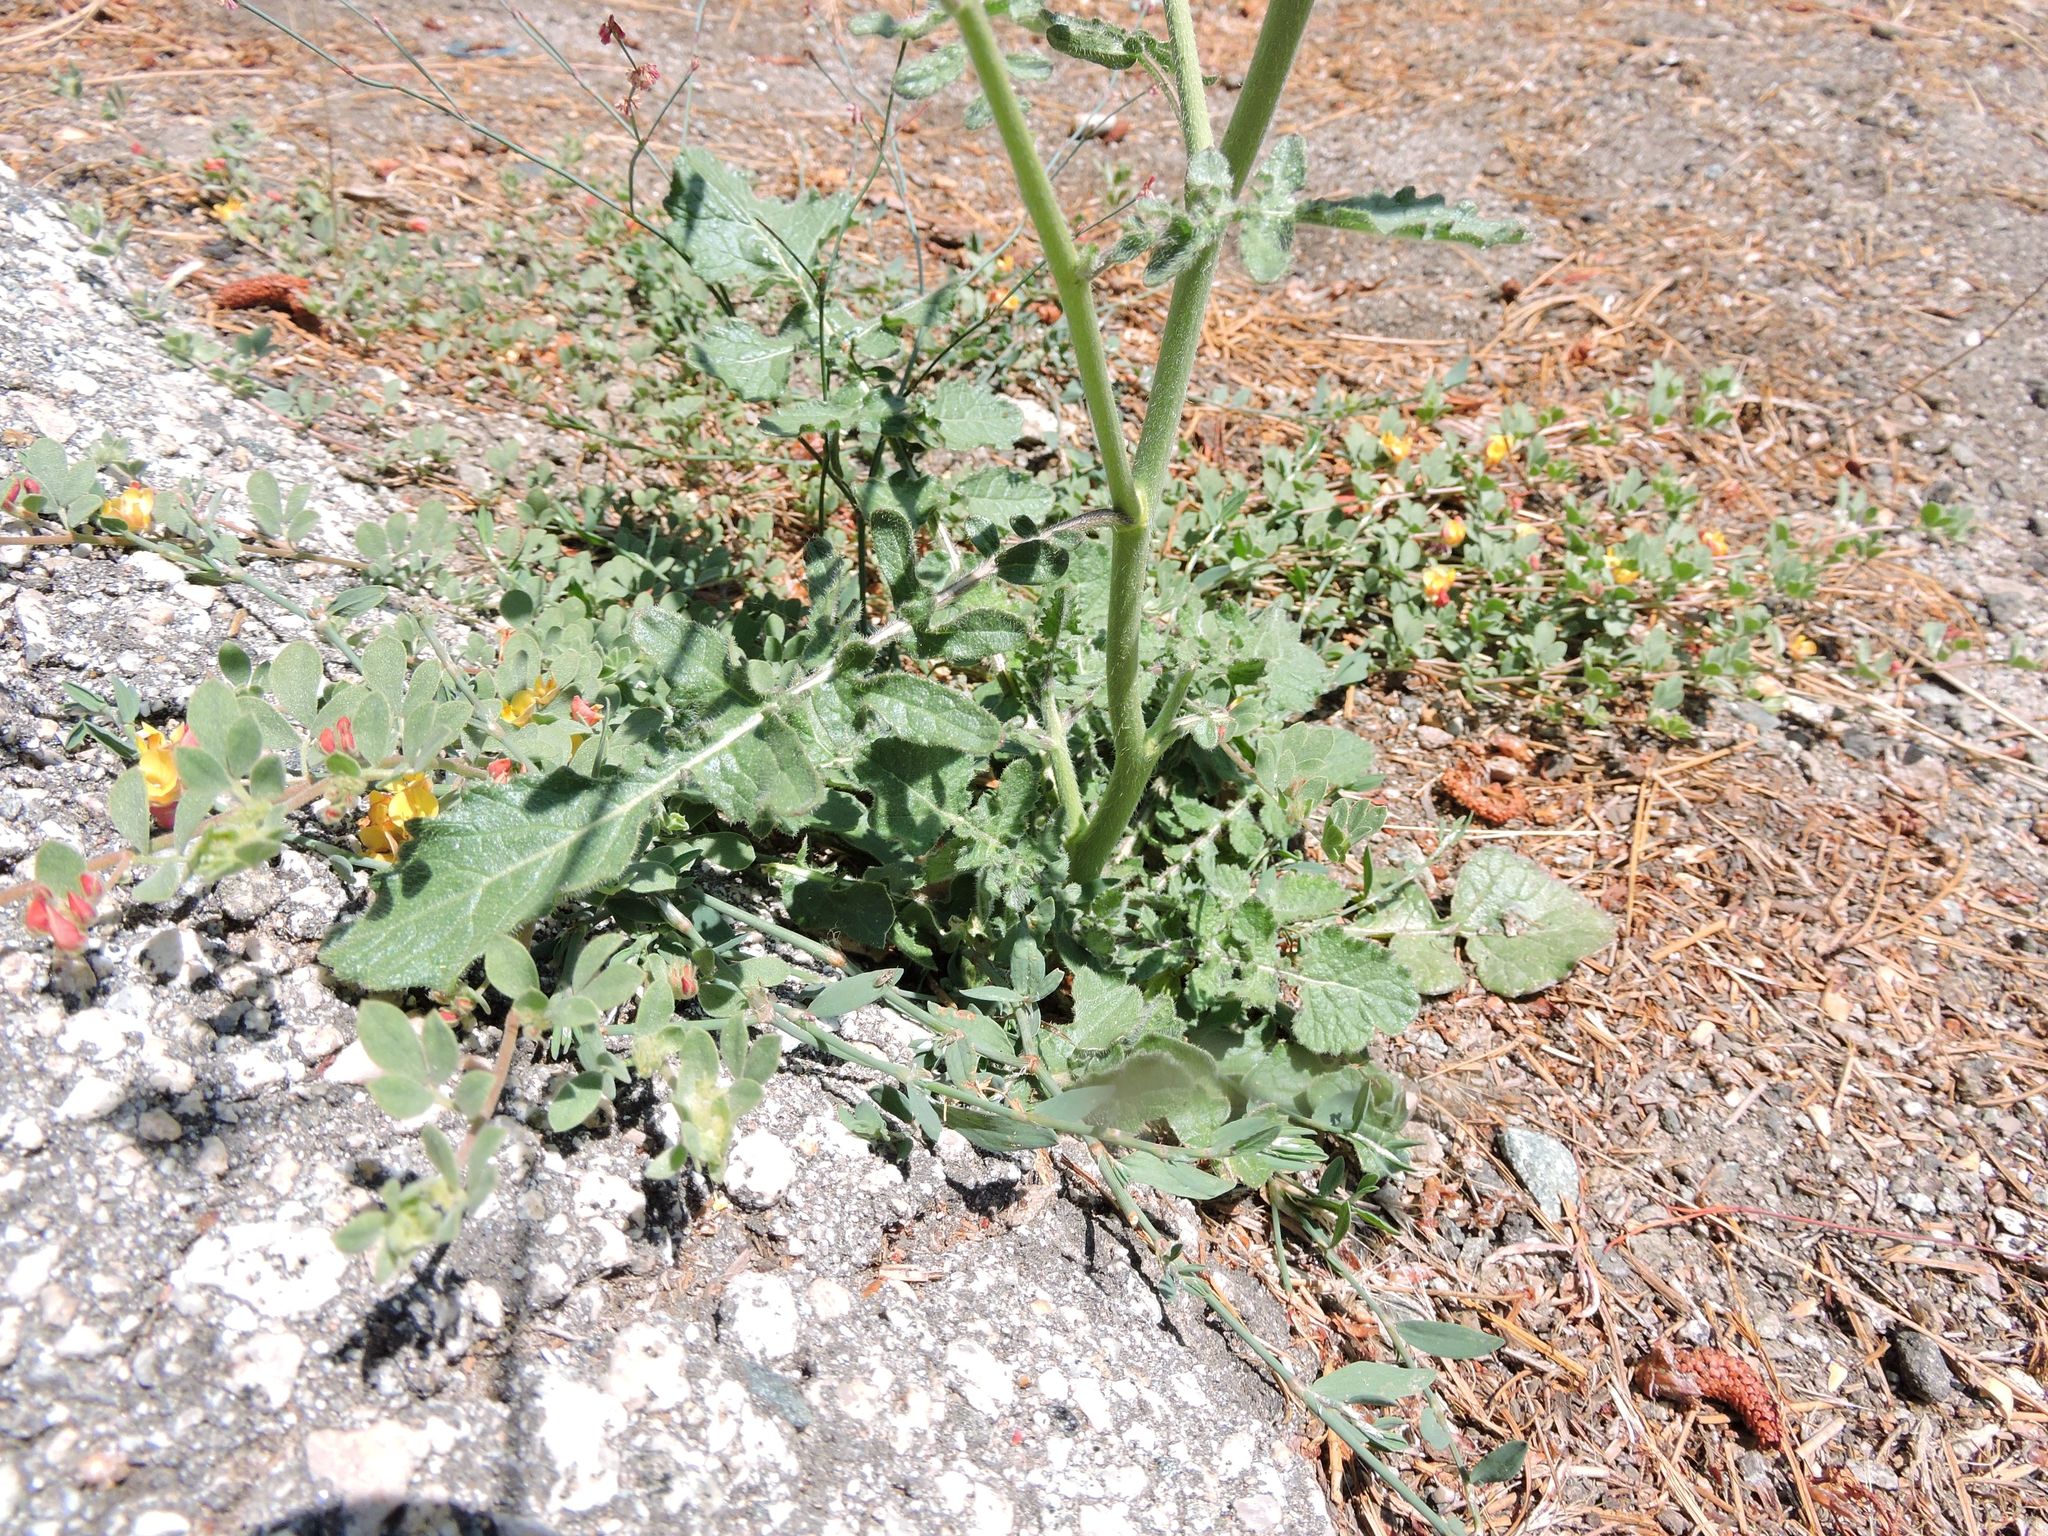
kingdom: Plantae
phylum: Tracheophyta
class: Magnoliopsida
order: Brassicales
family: Brassicaceae
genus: Hirschfeldia
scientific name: Hirschfeldia incana
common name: Hoary mustard
